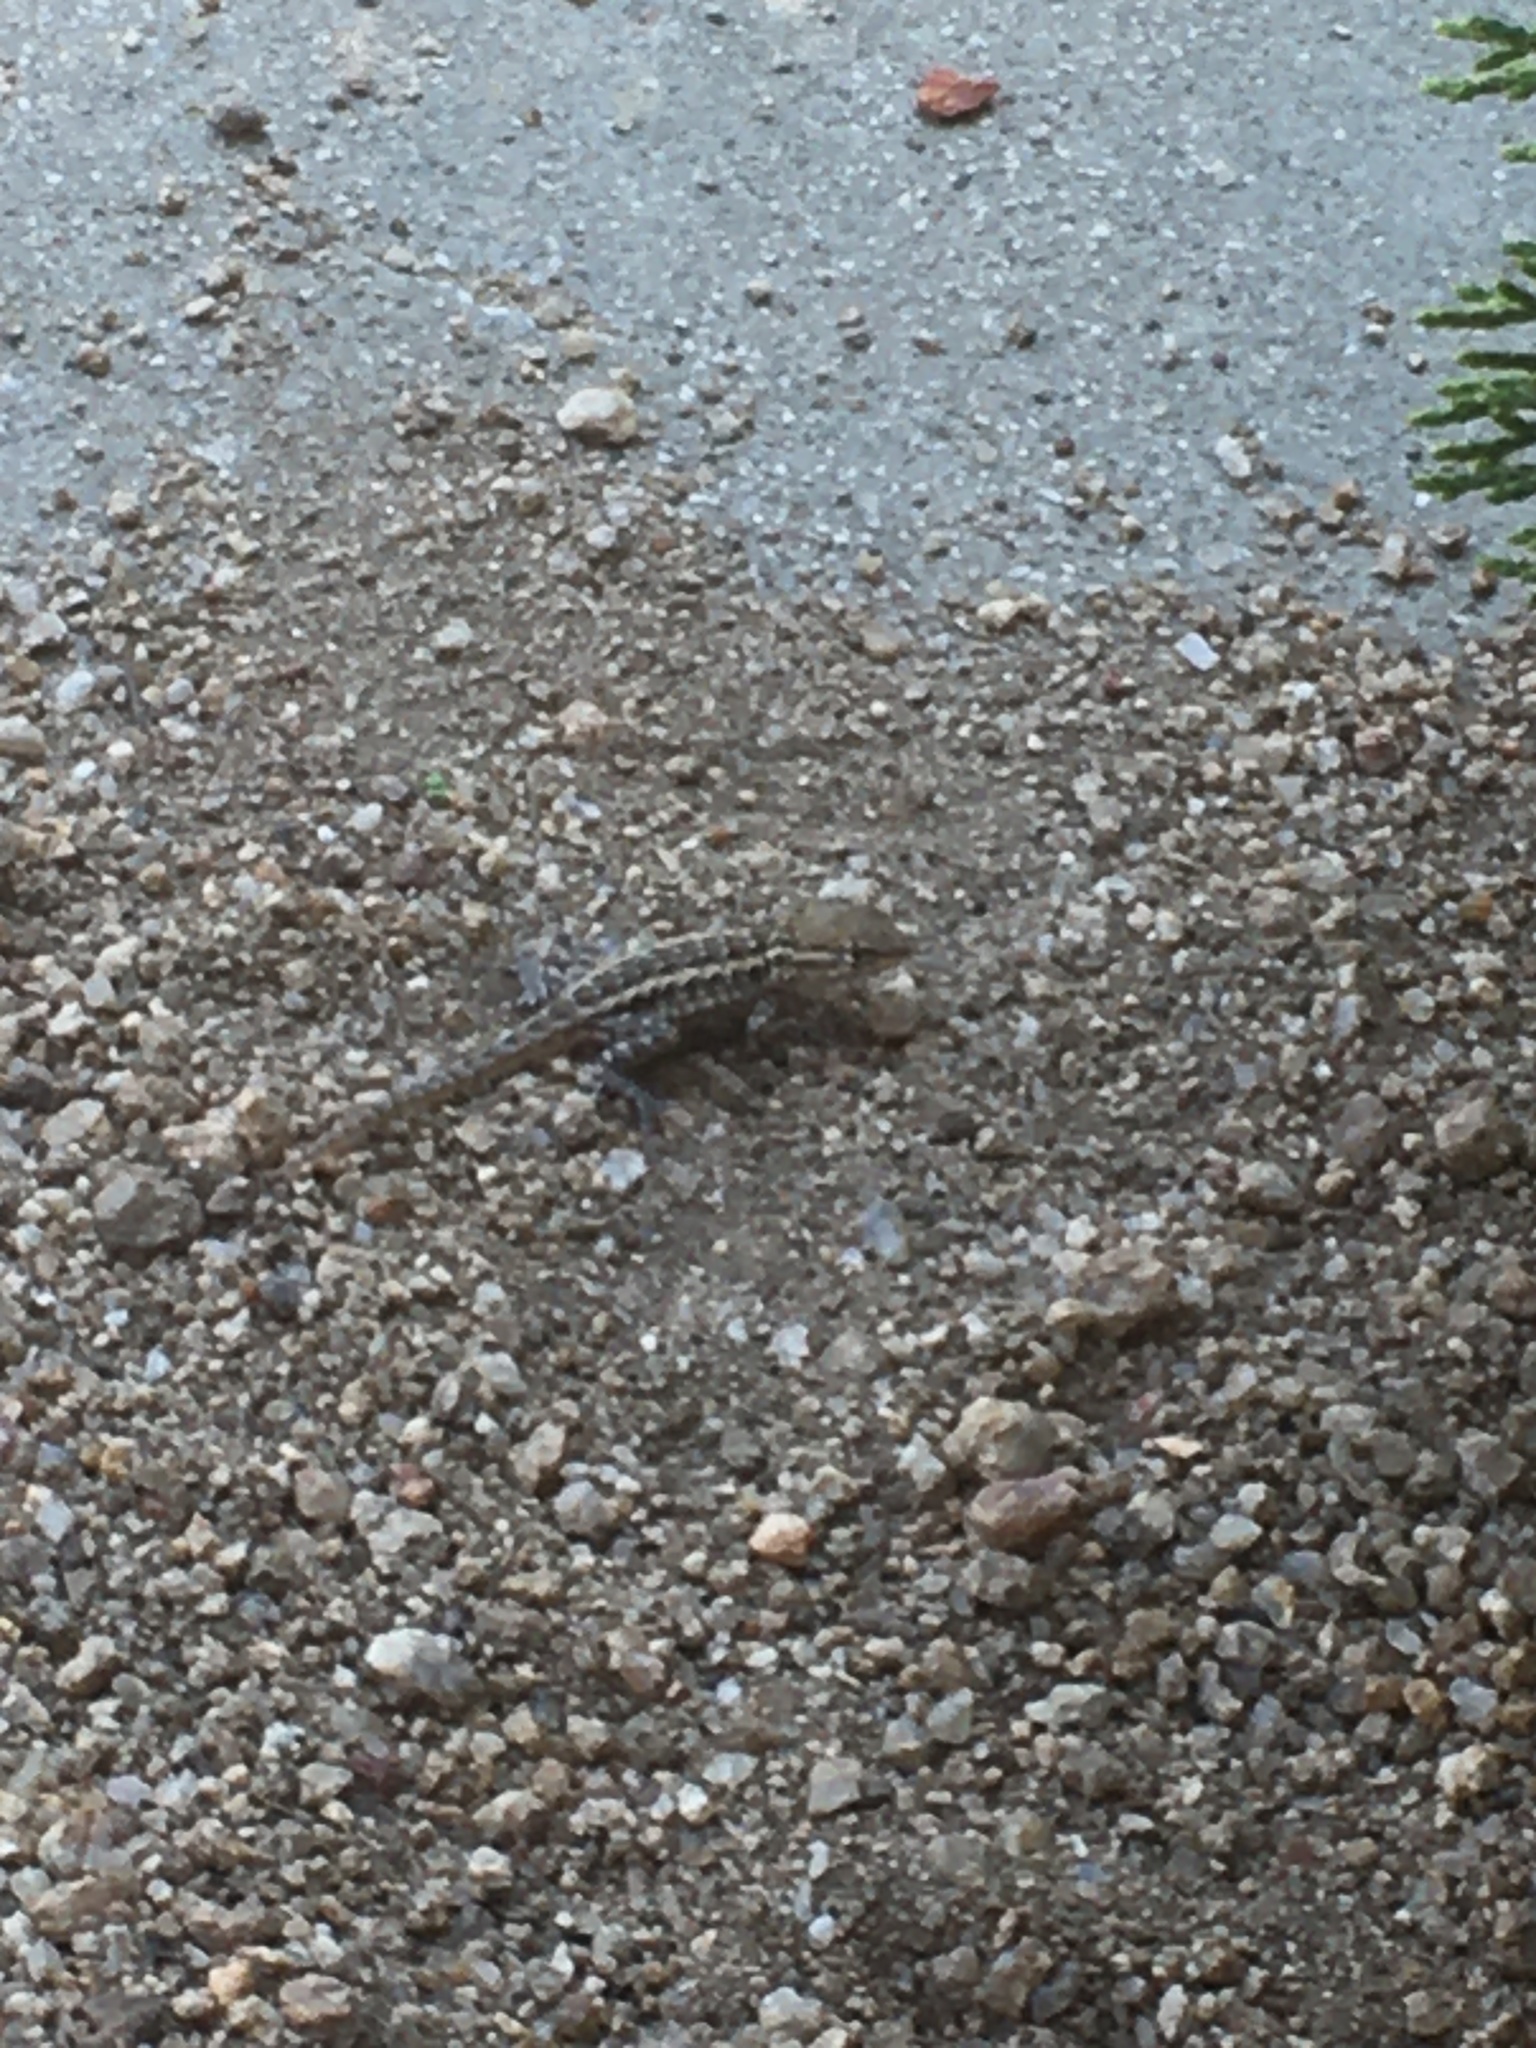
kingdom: Animalia
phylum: Chordata
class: Squamata
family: Phrynosomatidae
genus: Uta
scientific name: Uta stansburiana
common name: Side-blotched lizard
